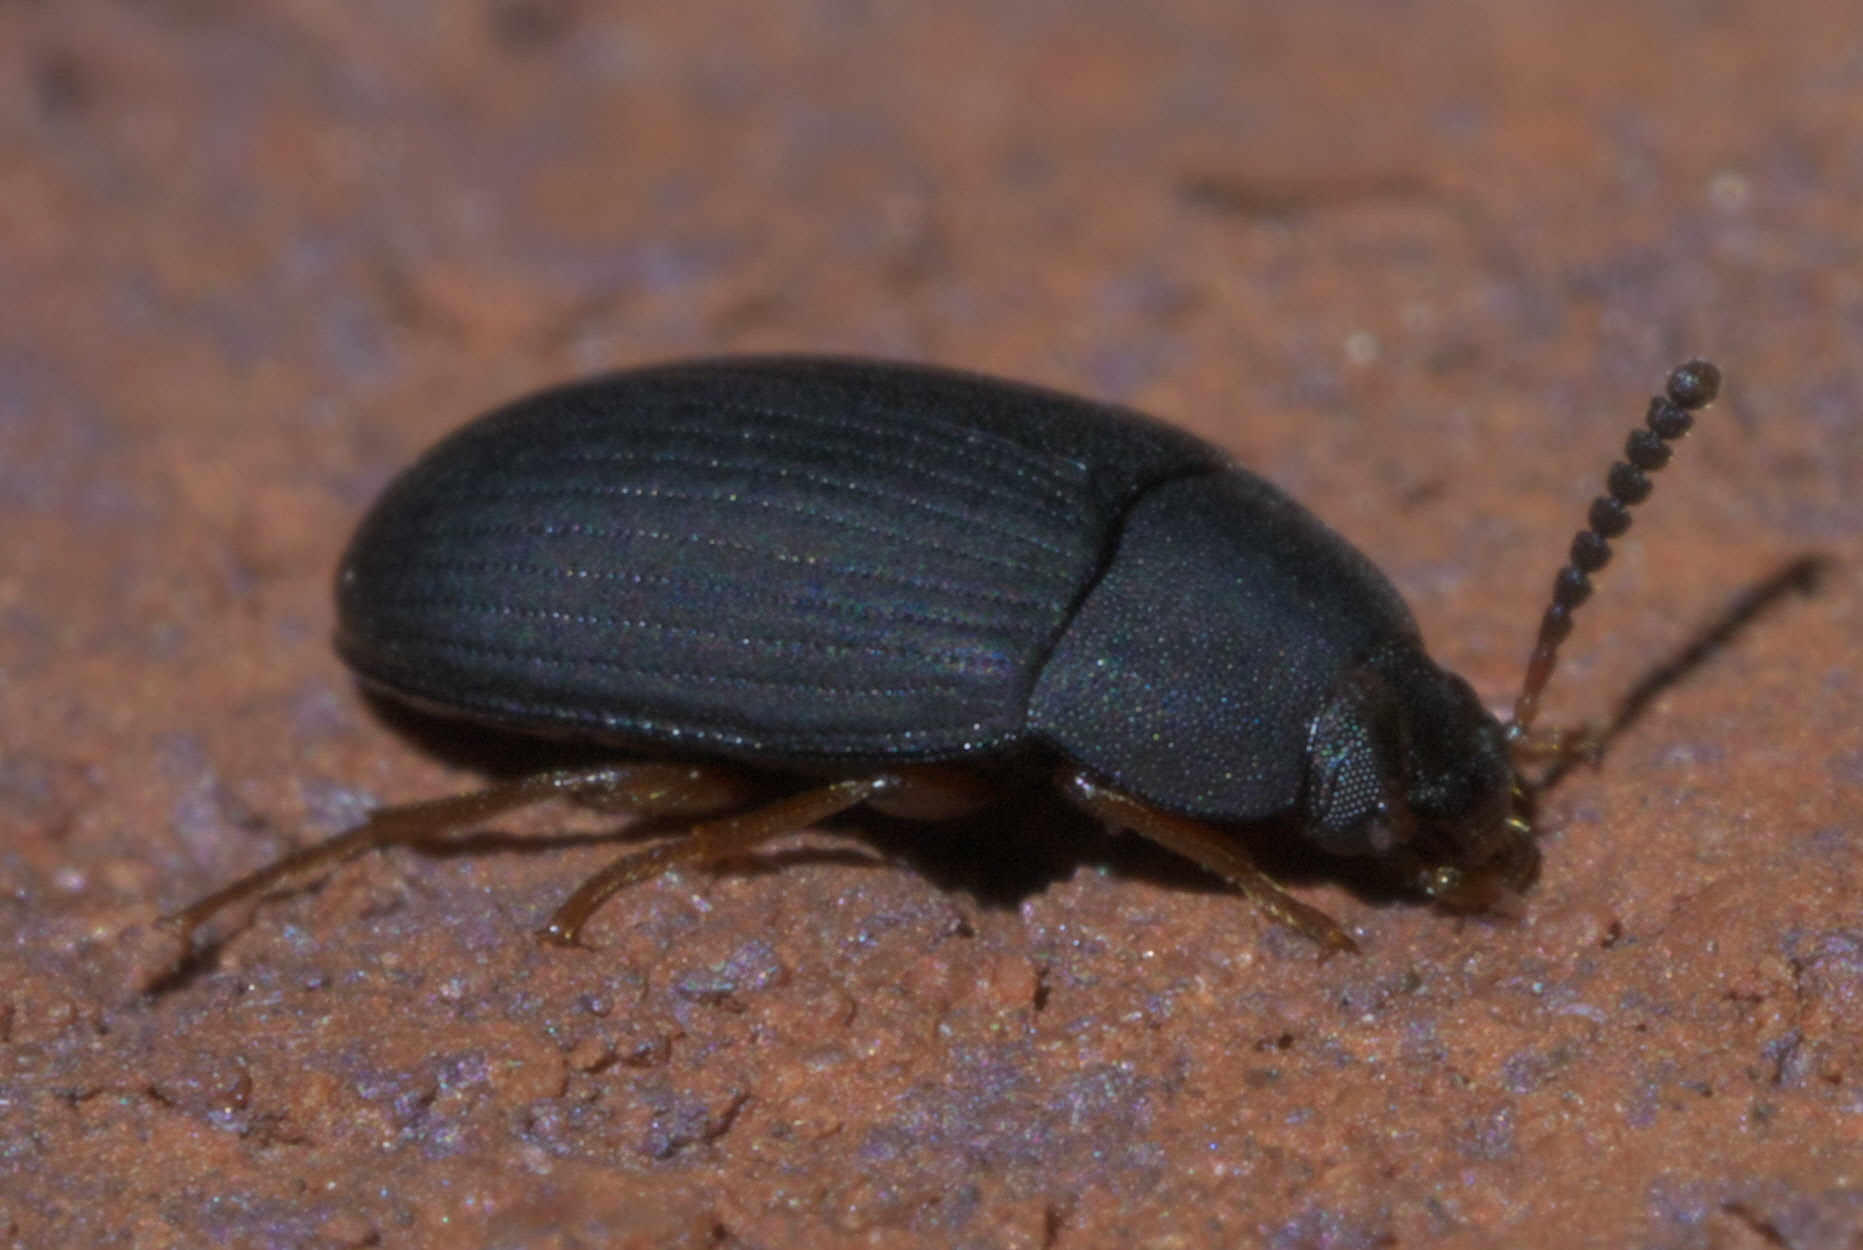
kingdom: Animalia
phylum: Arthropoda
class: Insecta
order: Coleoptera
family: Tenebrionidae
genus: Platydema
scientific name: Platydema flavipes
